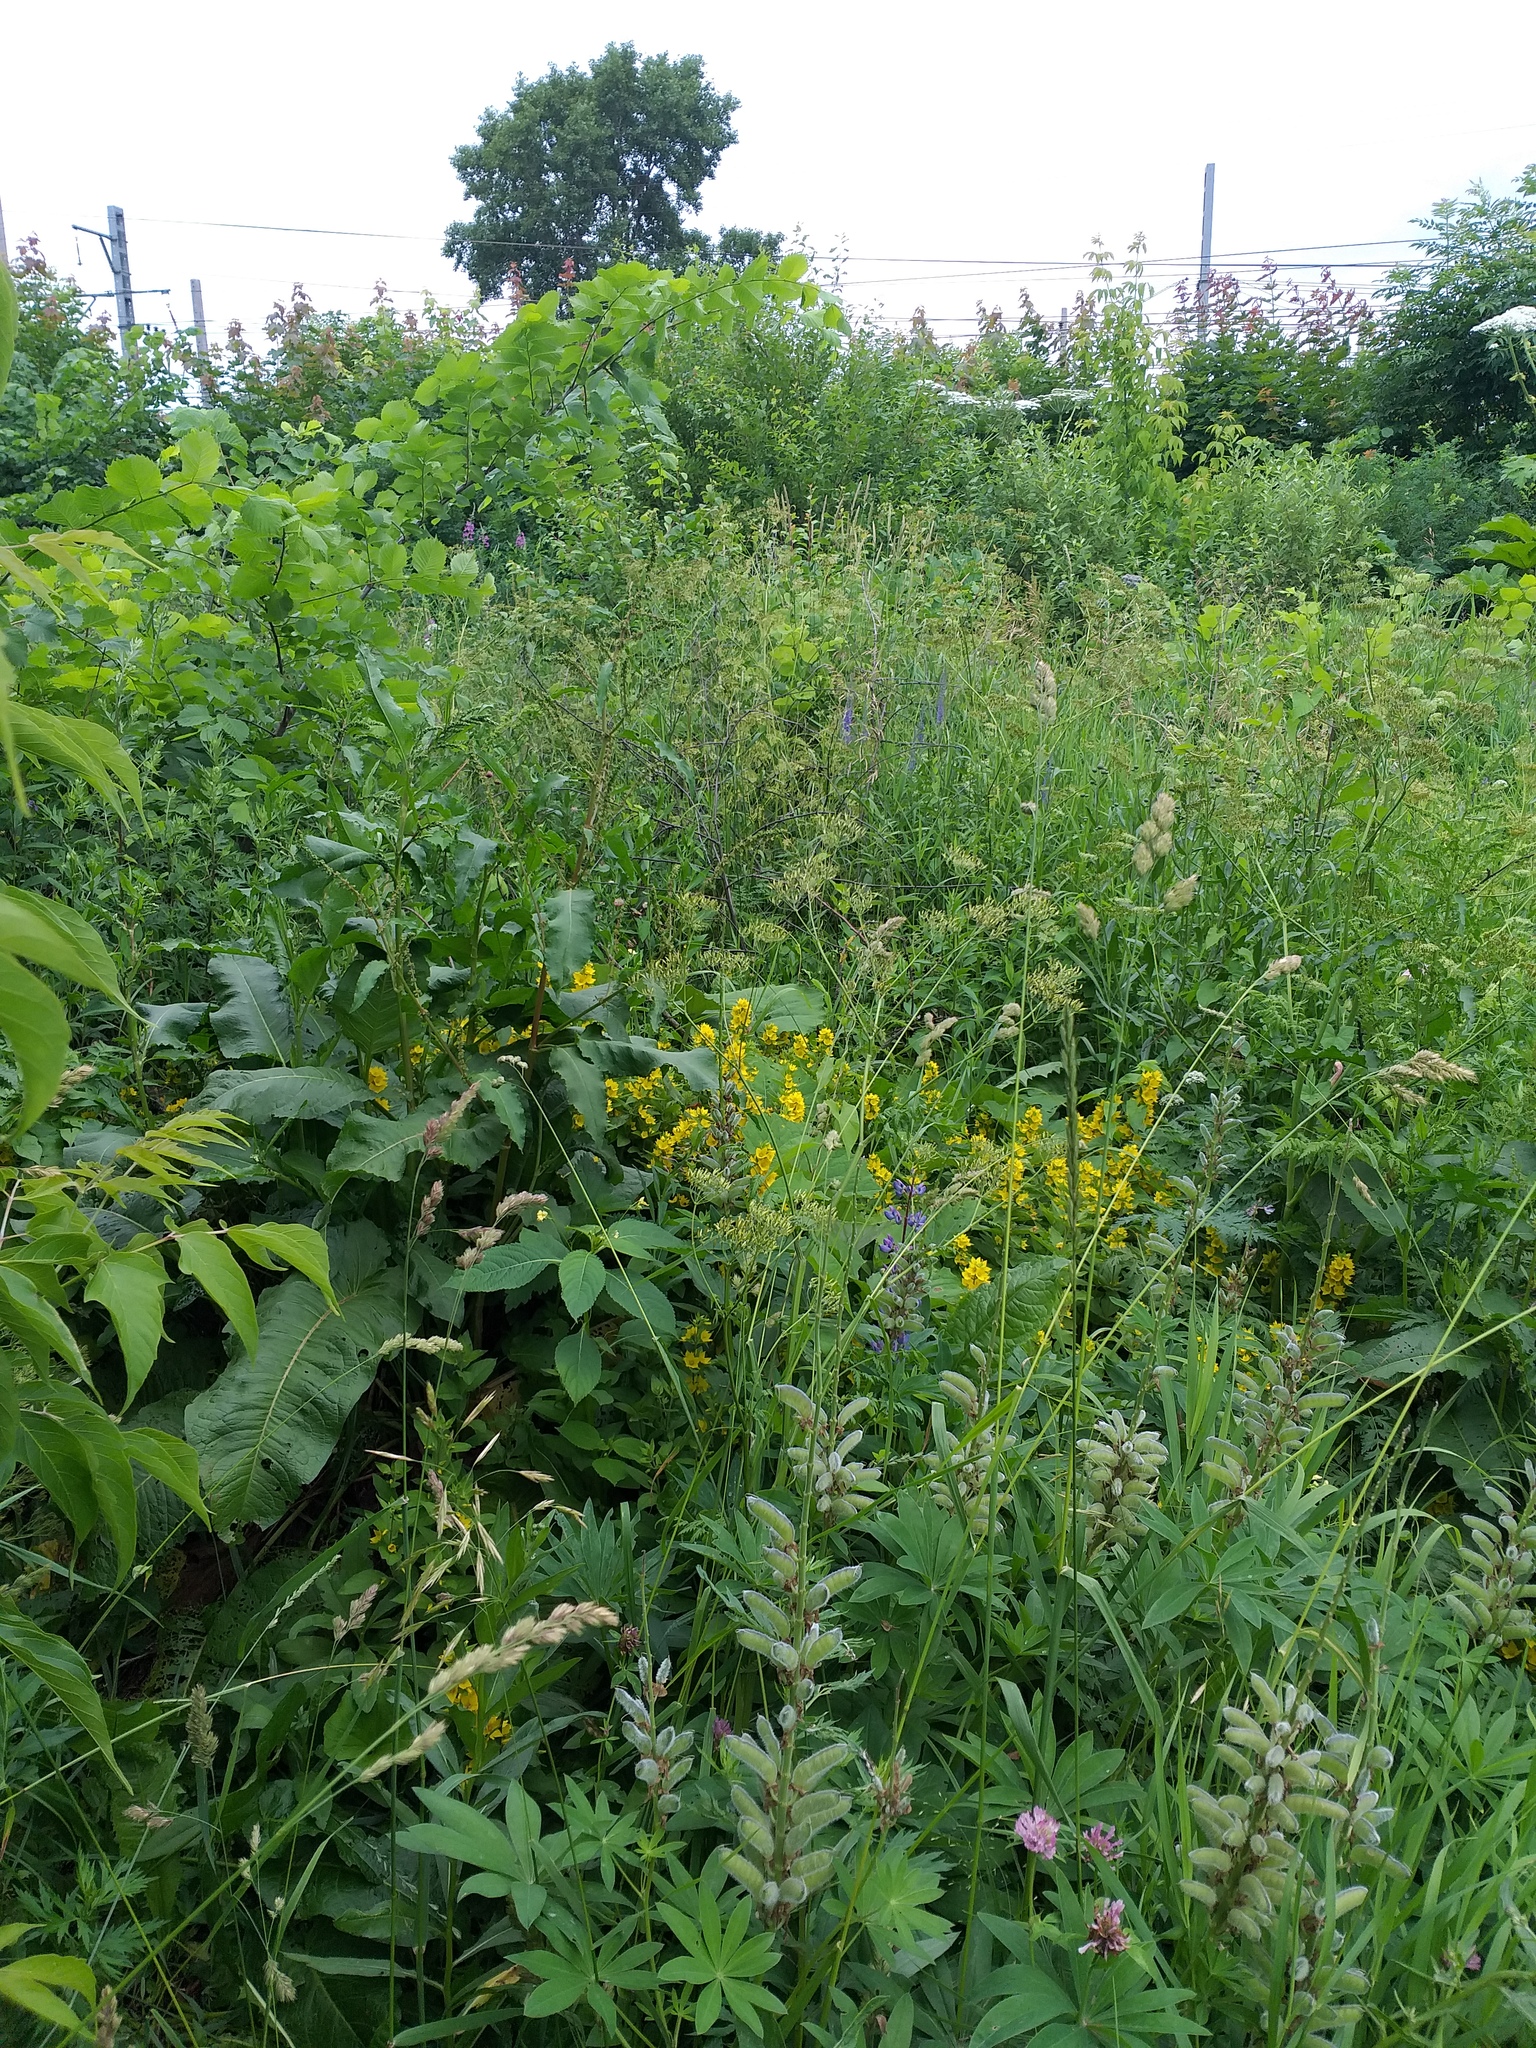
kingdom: Plantae
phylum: Tracheophyta
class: Magnoliopsida
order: Ericales
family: Primulaceae
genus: Lysimachia
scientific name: Lysimachia punctata
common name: Dotted loosestrife
